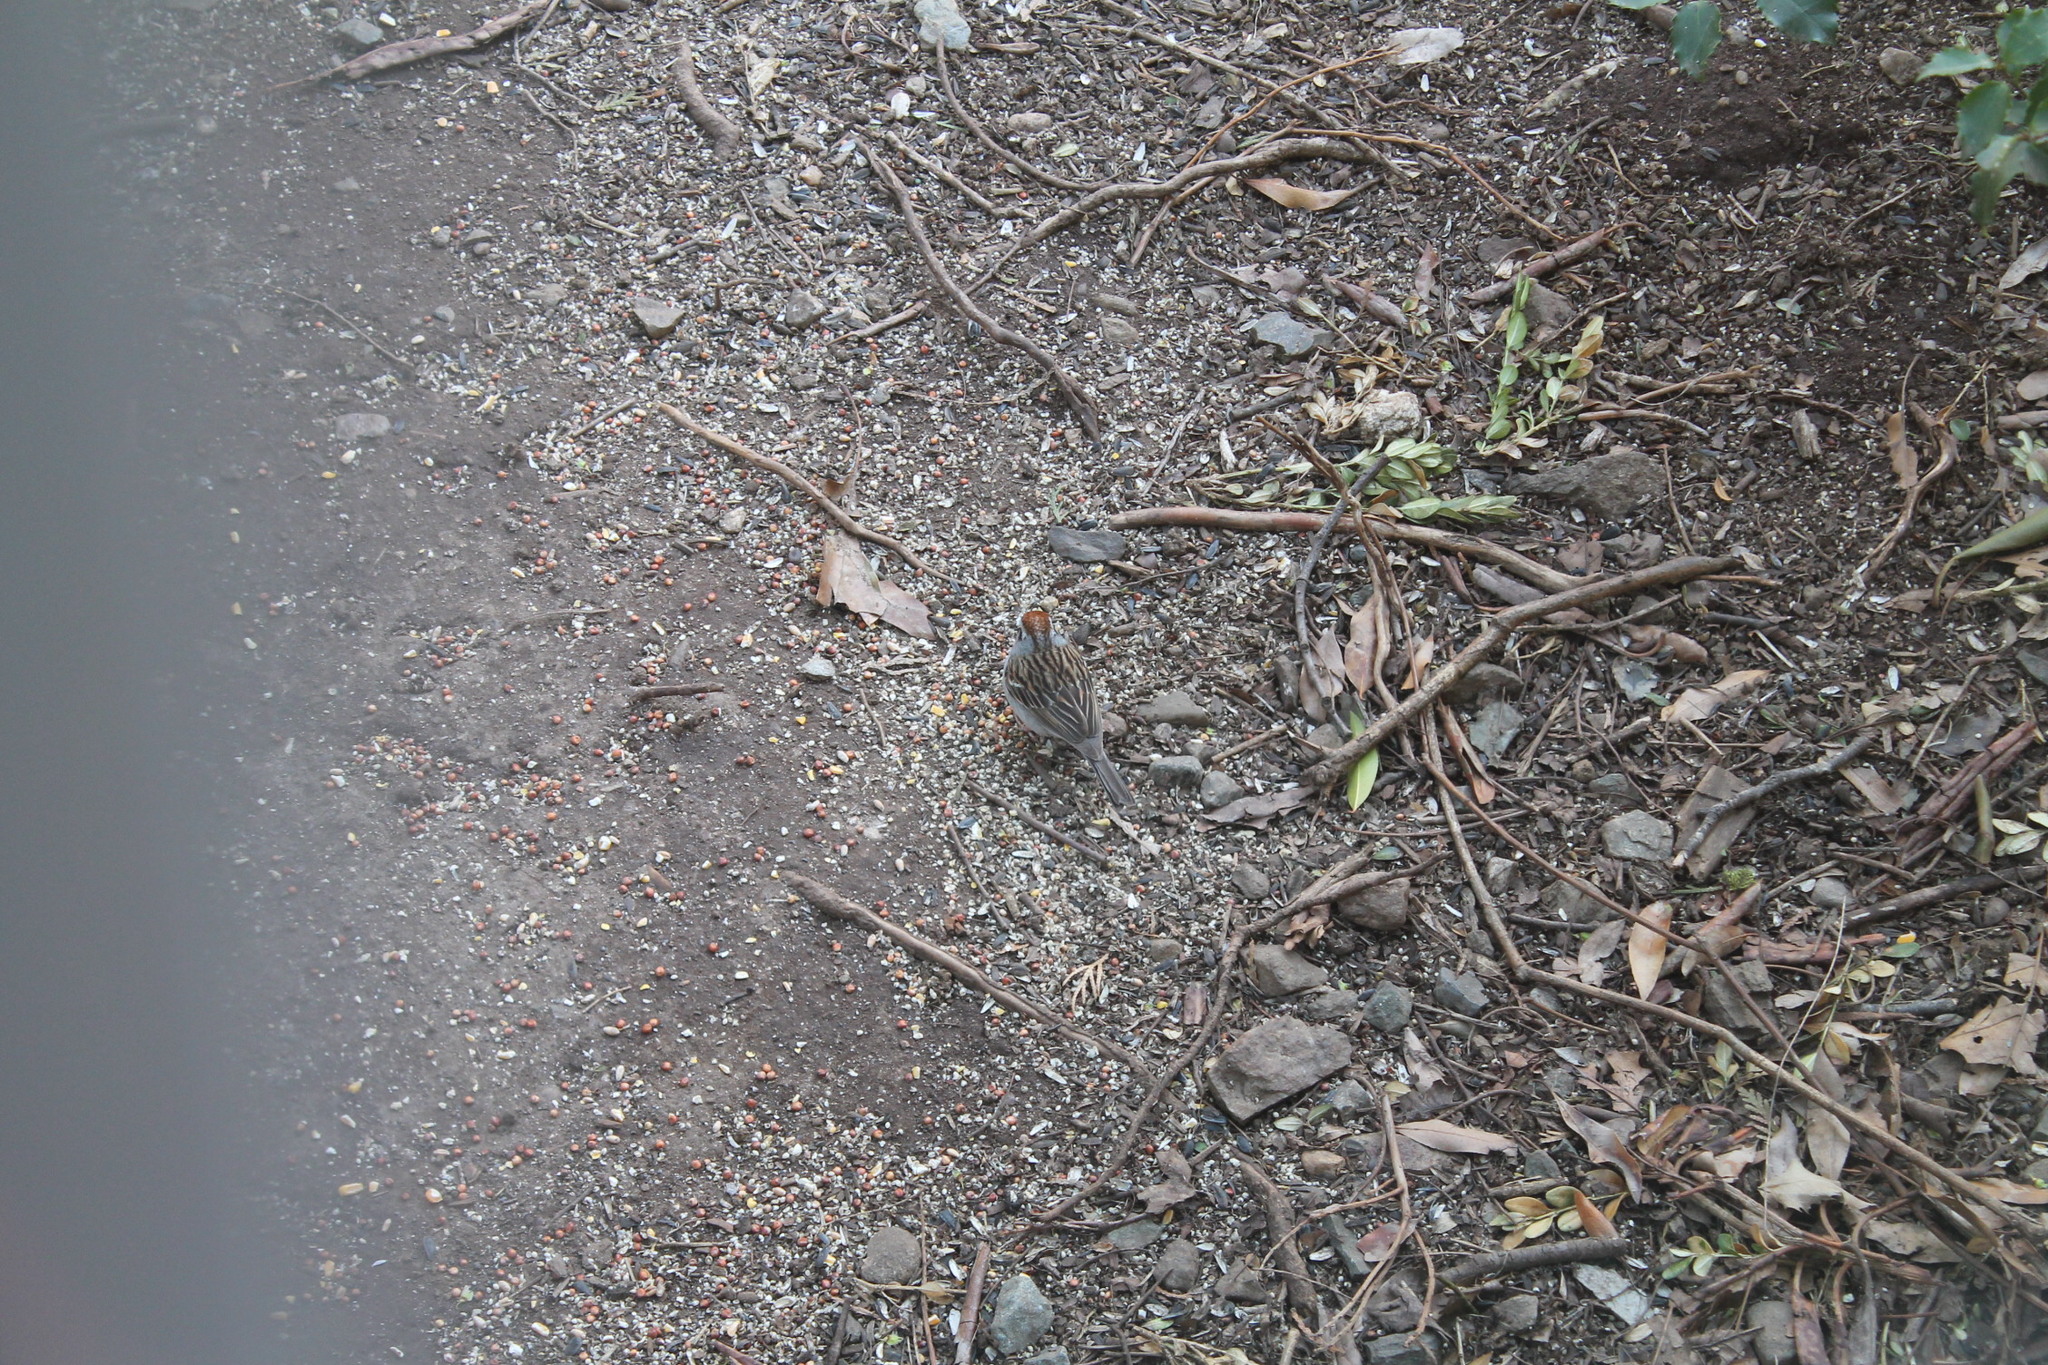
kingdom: Animalia
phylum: Chordata
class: Aves
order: Passeriformes
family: Passerellidae
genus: Spizella
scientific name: Spizella passerina
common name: Chipping sparrow
